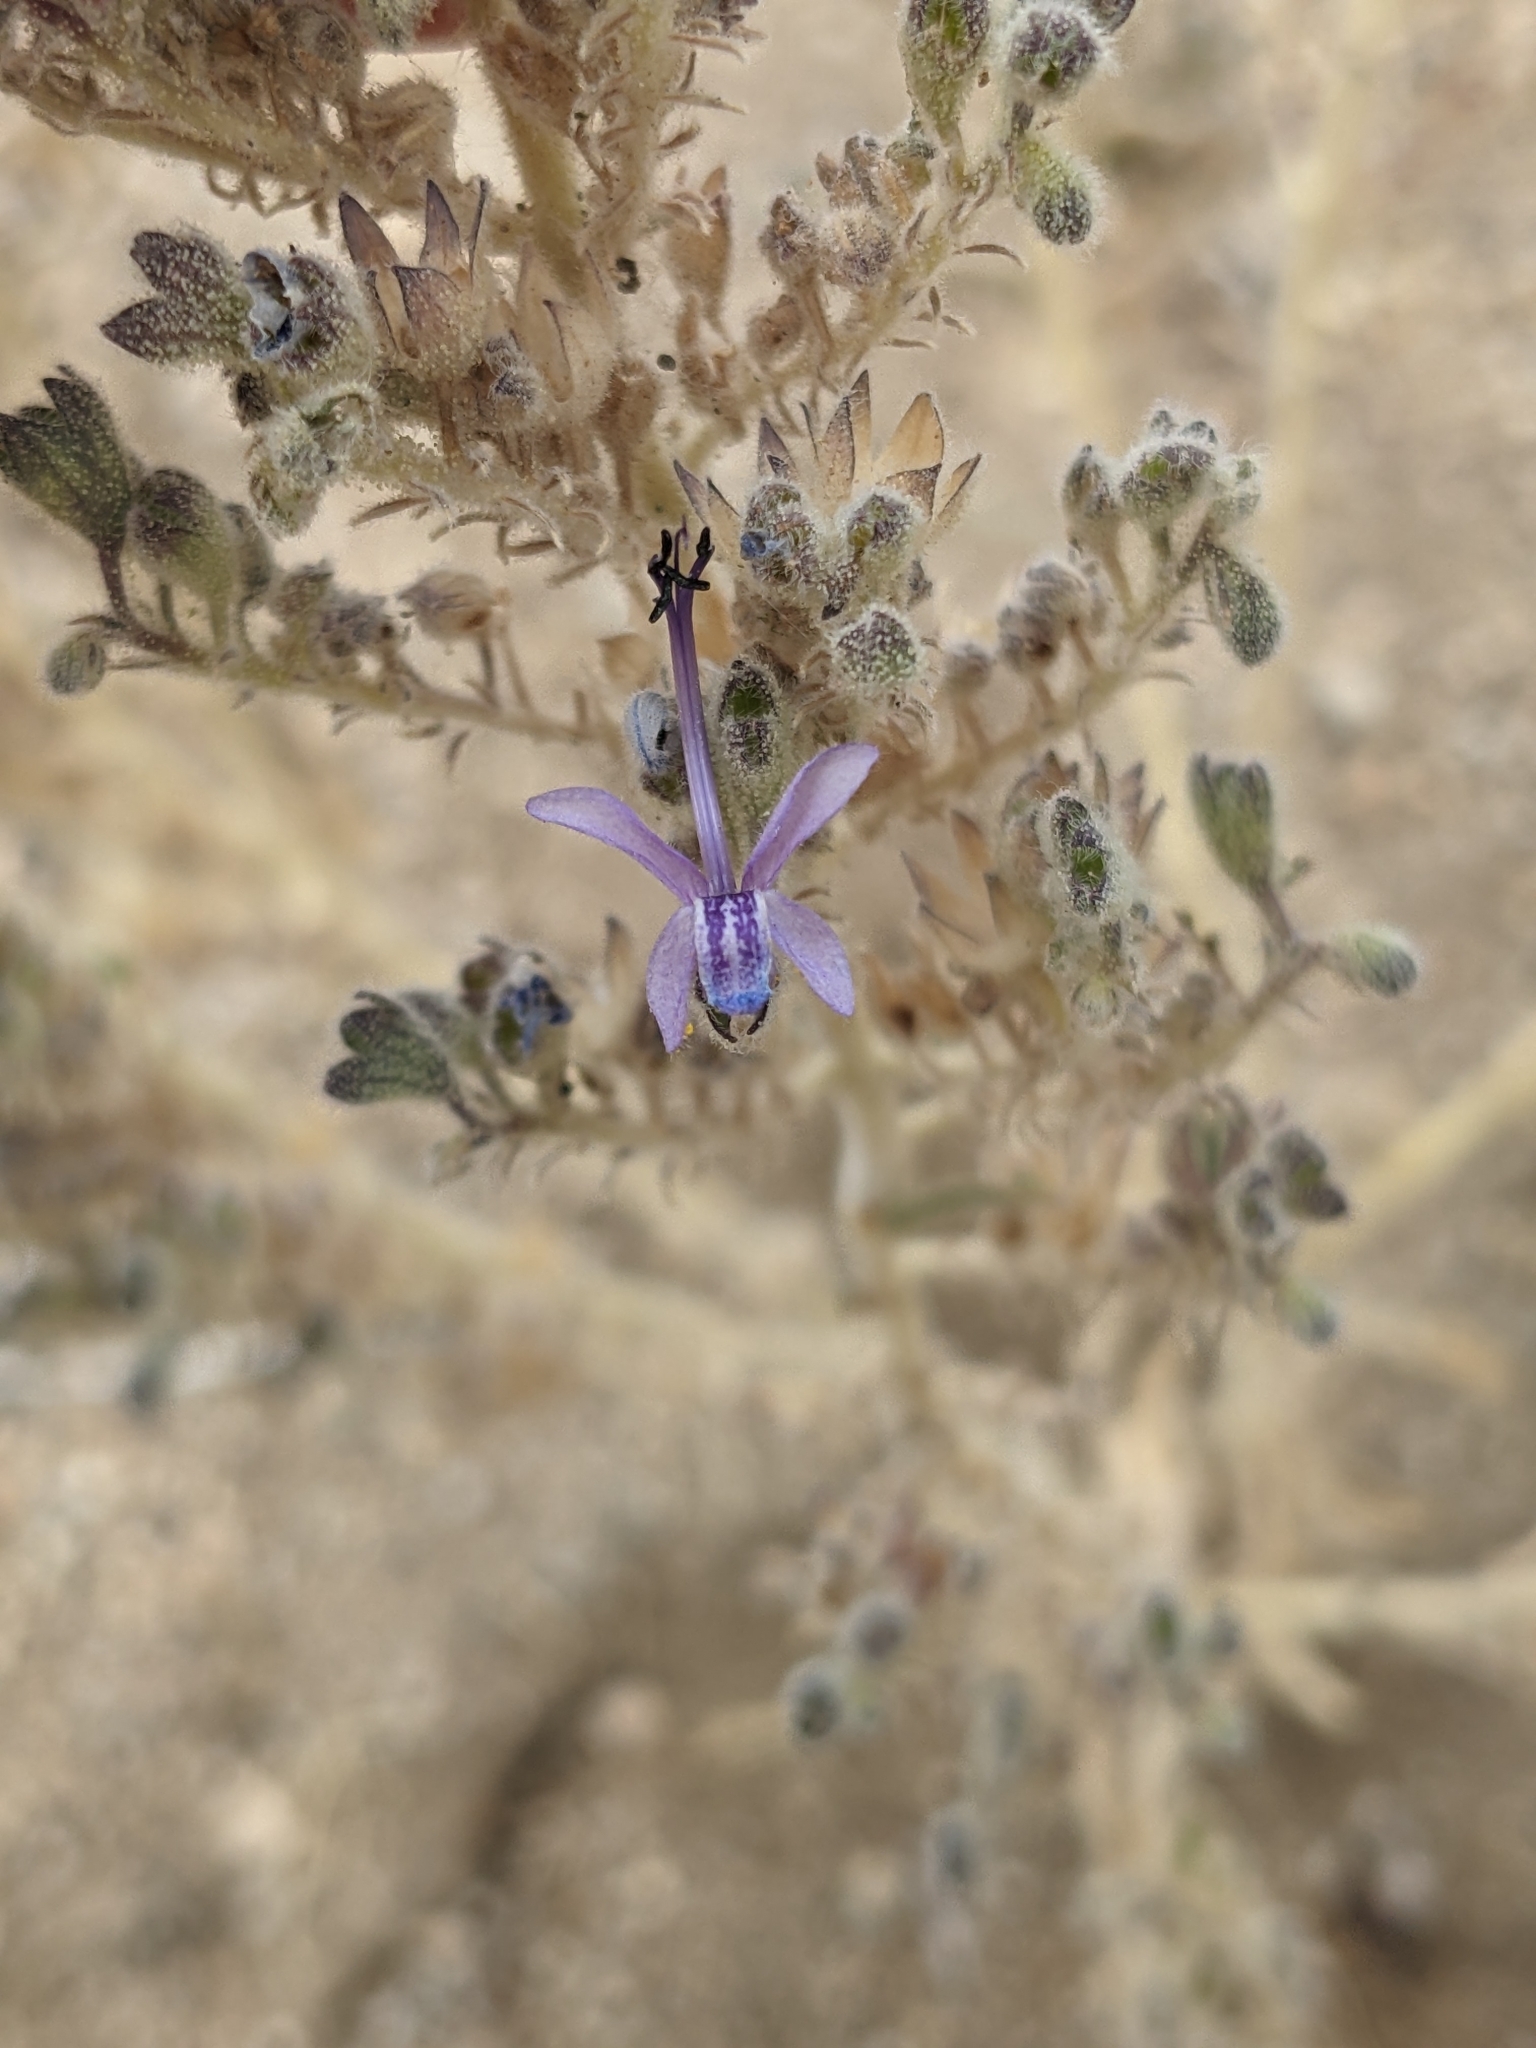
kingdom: Plantae
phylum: Tracheophyta
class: Magnoliopsida
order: Lamiales
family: Lamiaceae
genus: Trichostema
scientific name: Trichostema lanceolatum
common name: Vinegar-weed
